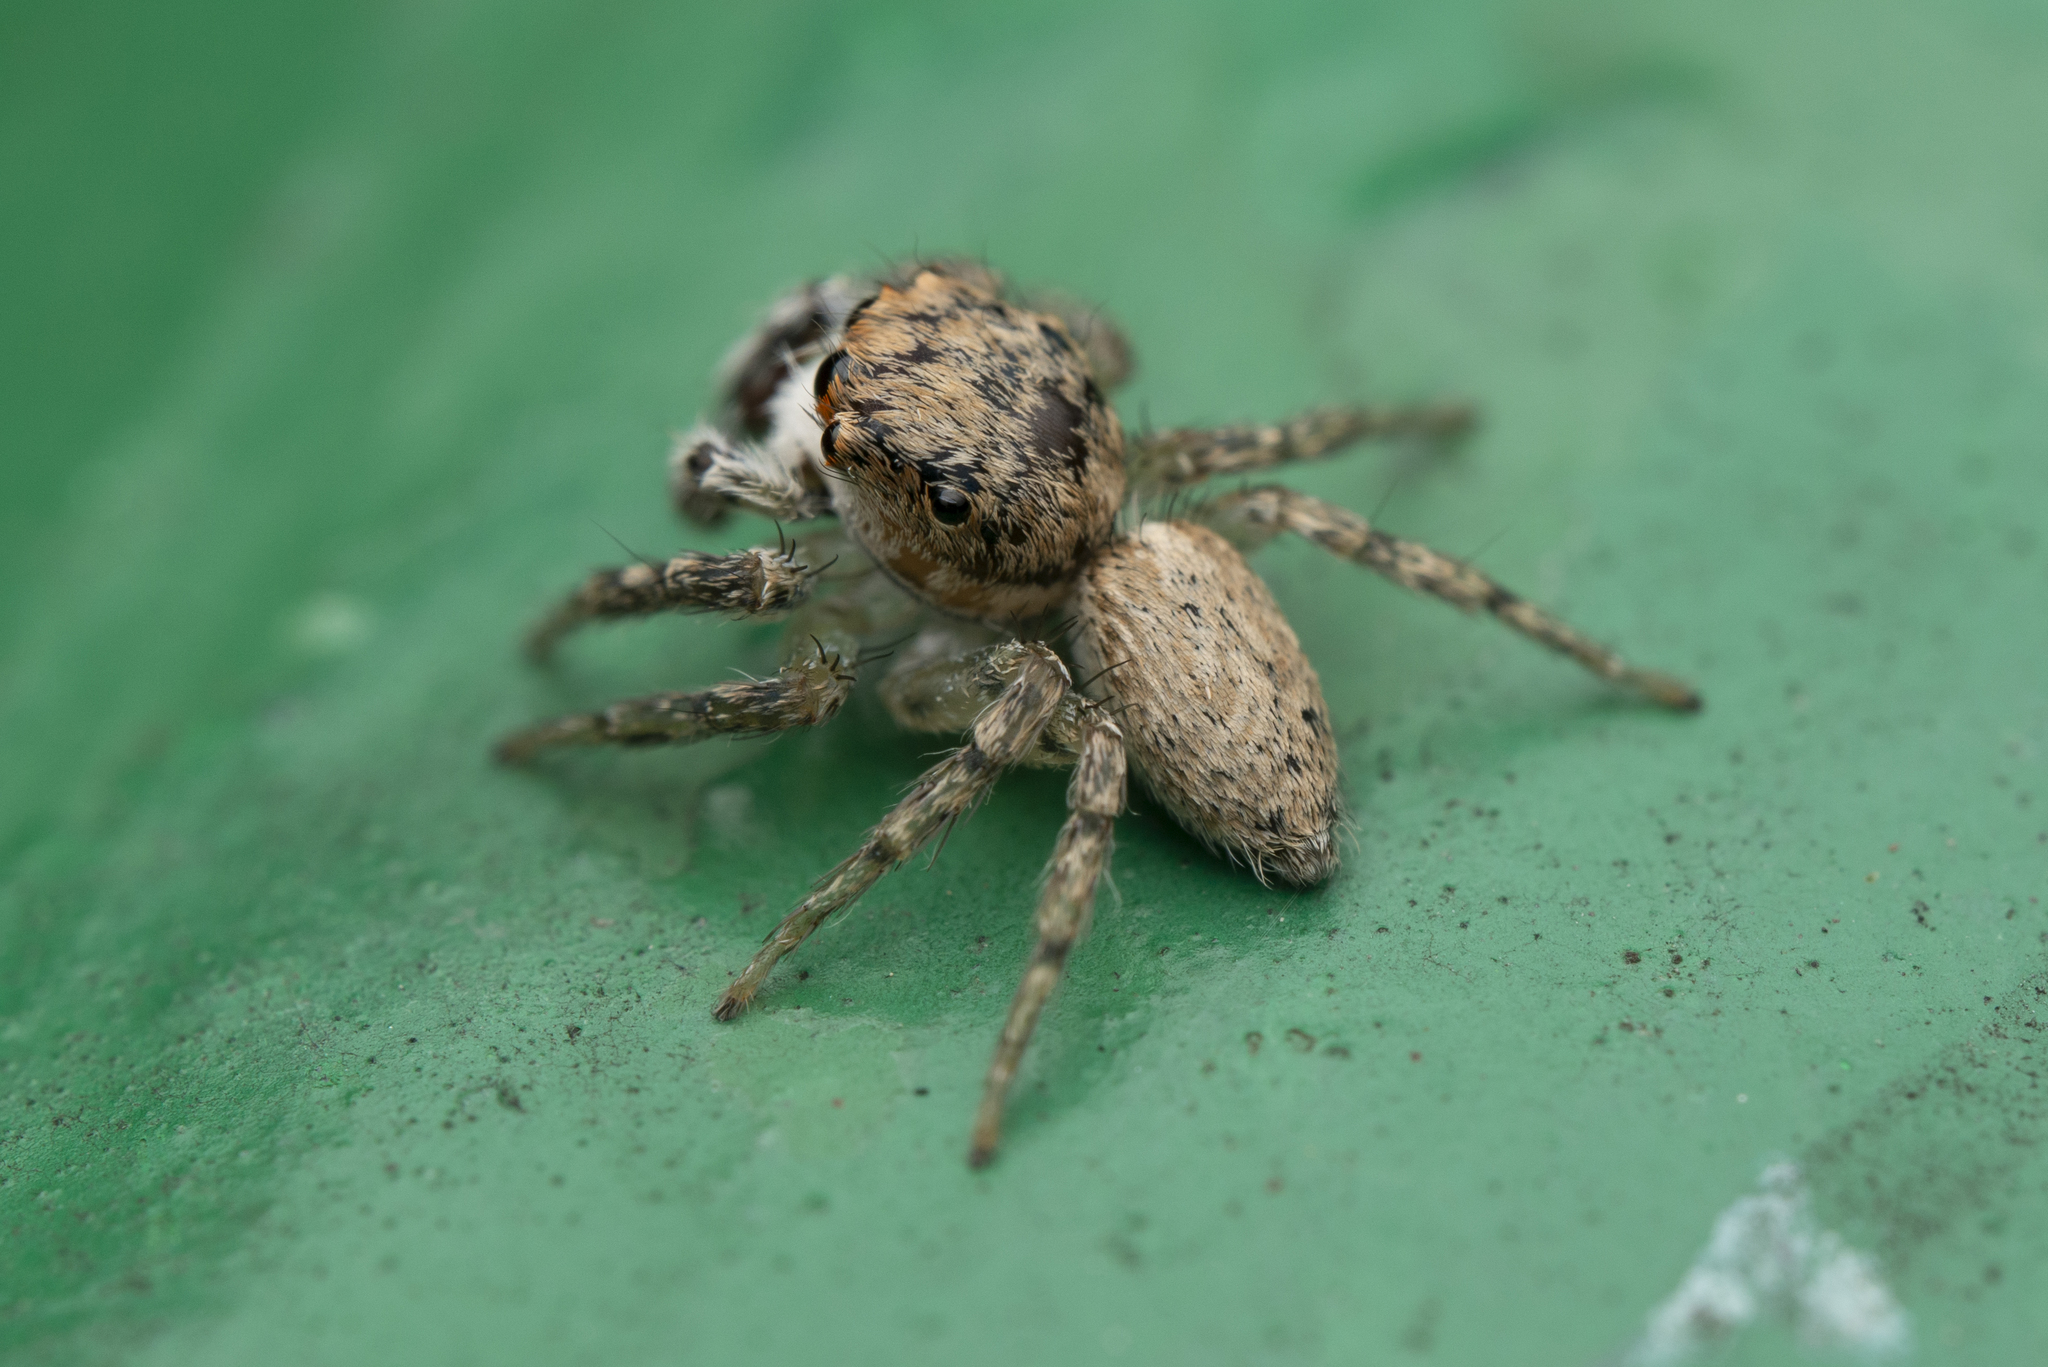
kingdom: Animalia
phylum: Arthropoda
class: Arachnida
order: Araneae
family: Salticidae
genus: Cytaea
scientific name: Cytaea maoming
